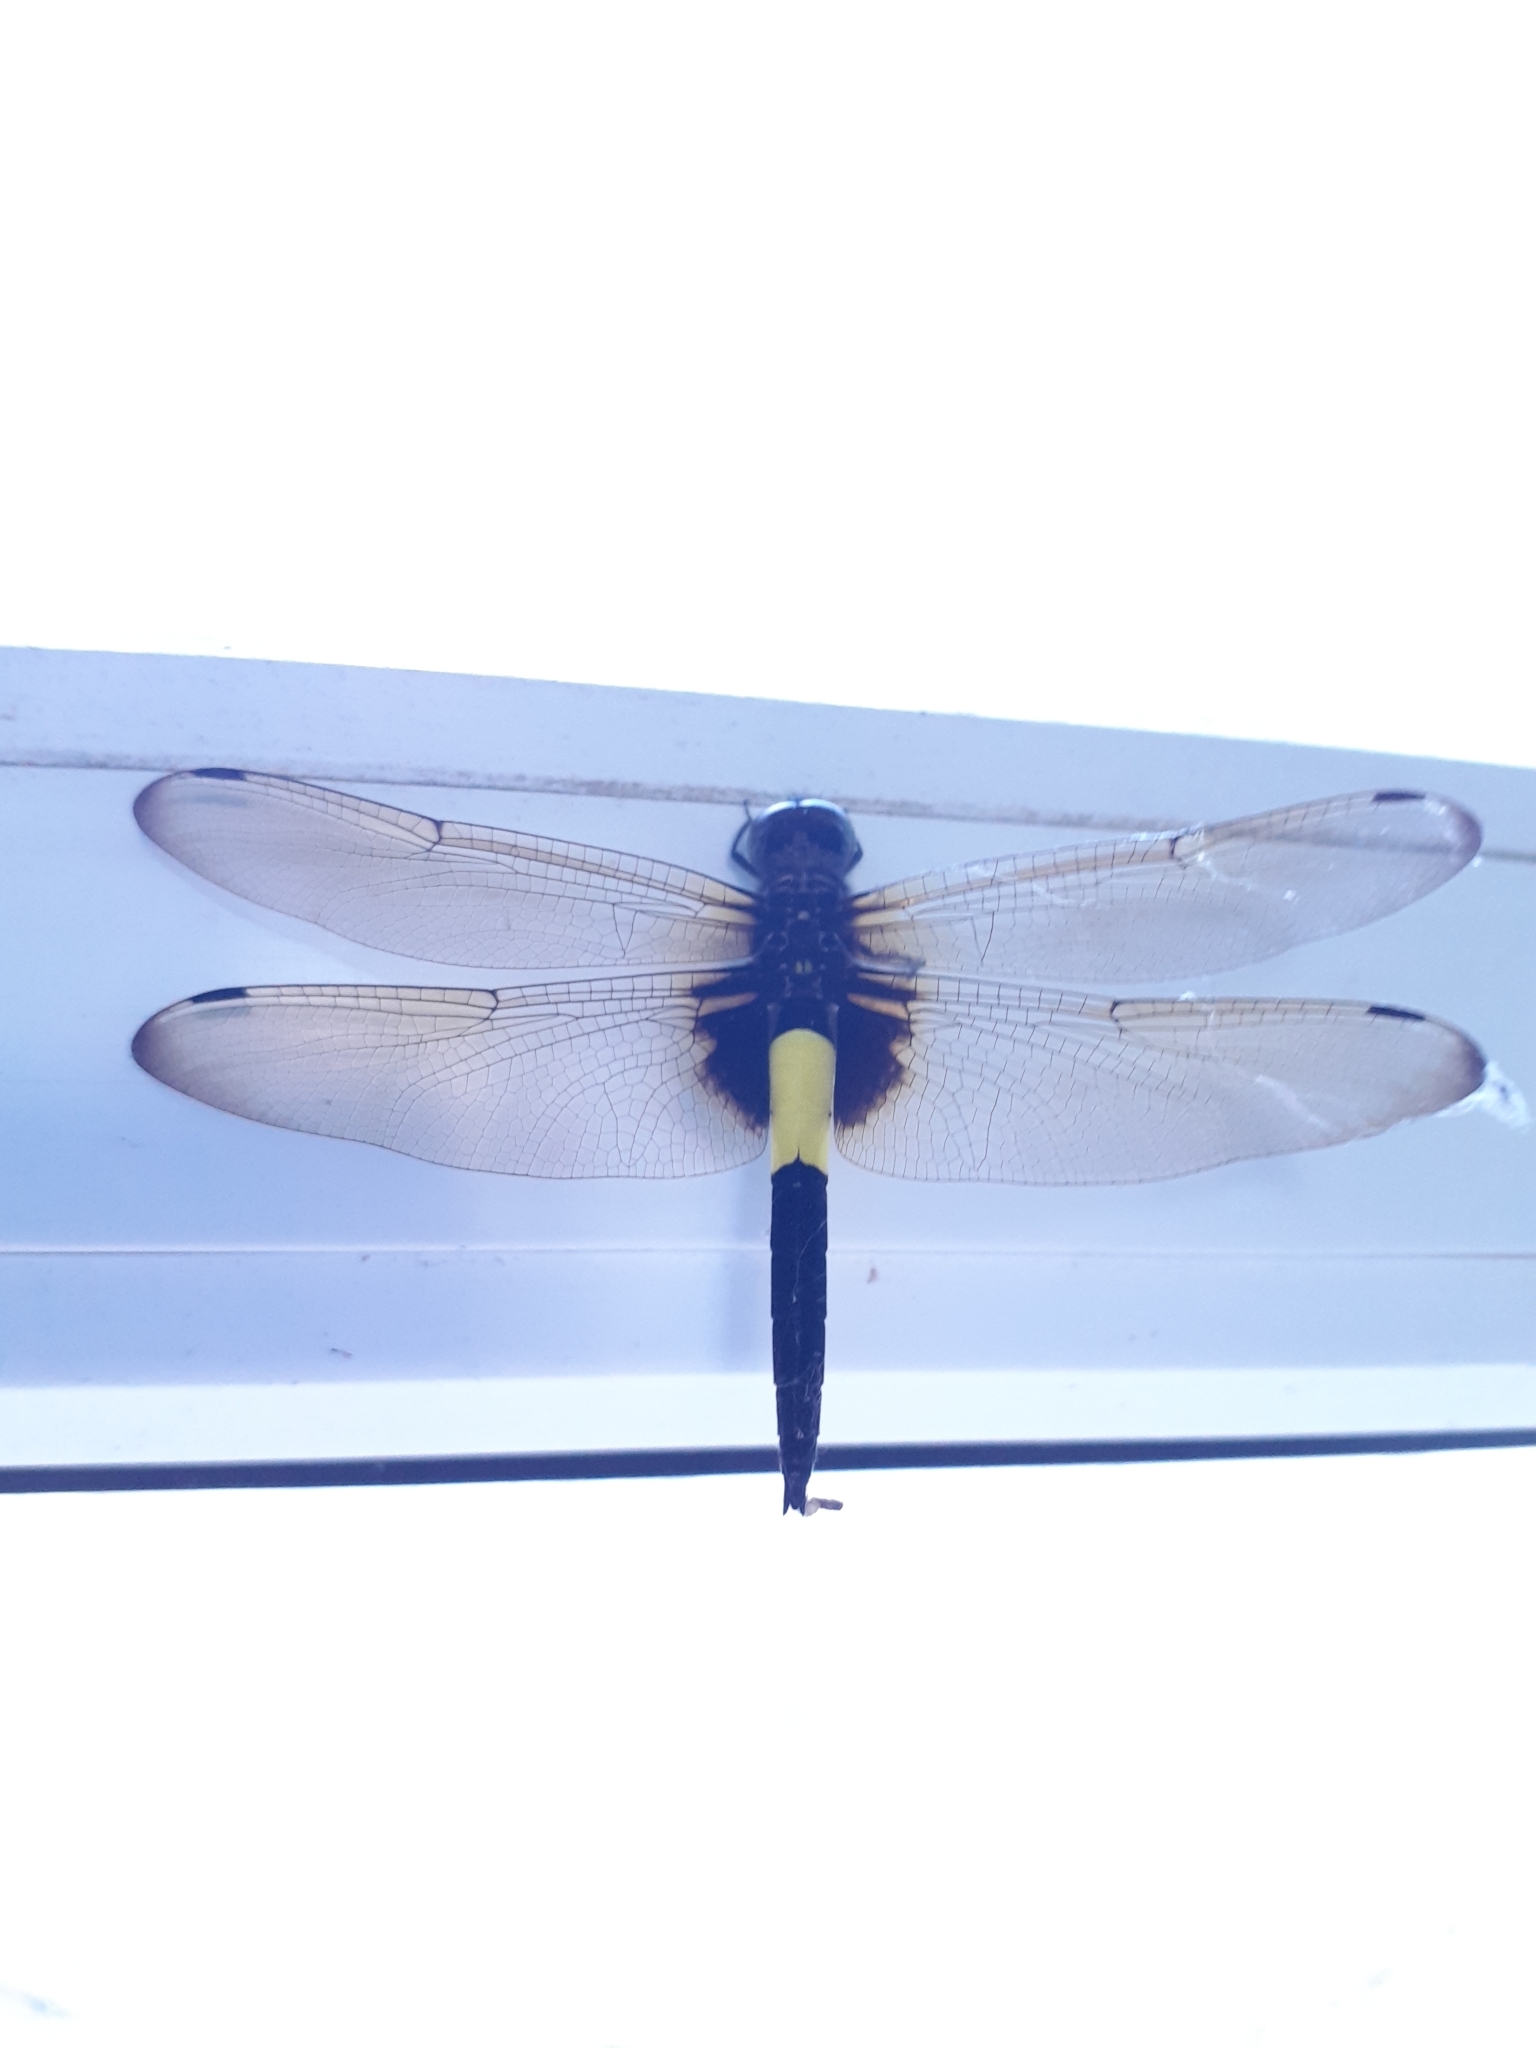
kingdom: Animalia
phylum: Arthropoda
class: Insecta
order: Odonata
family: Libellulidae
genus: Pseudothemis
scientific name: Pseudothemis zonata
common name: Pied skimmer
